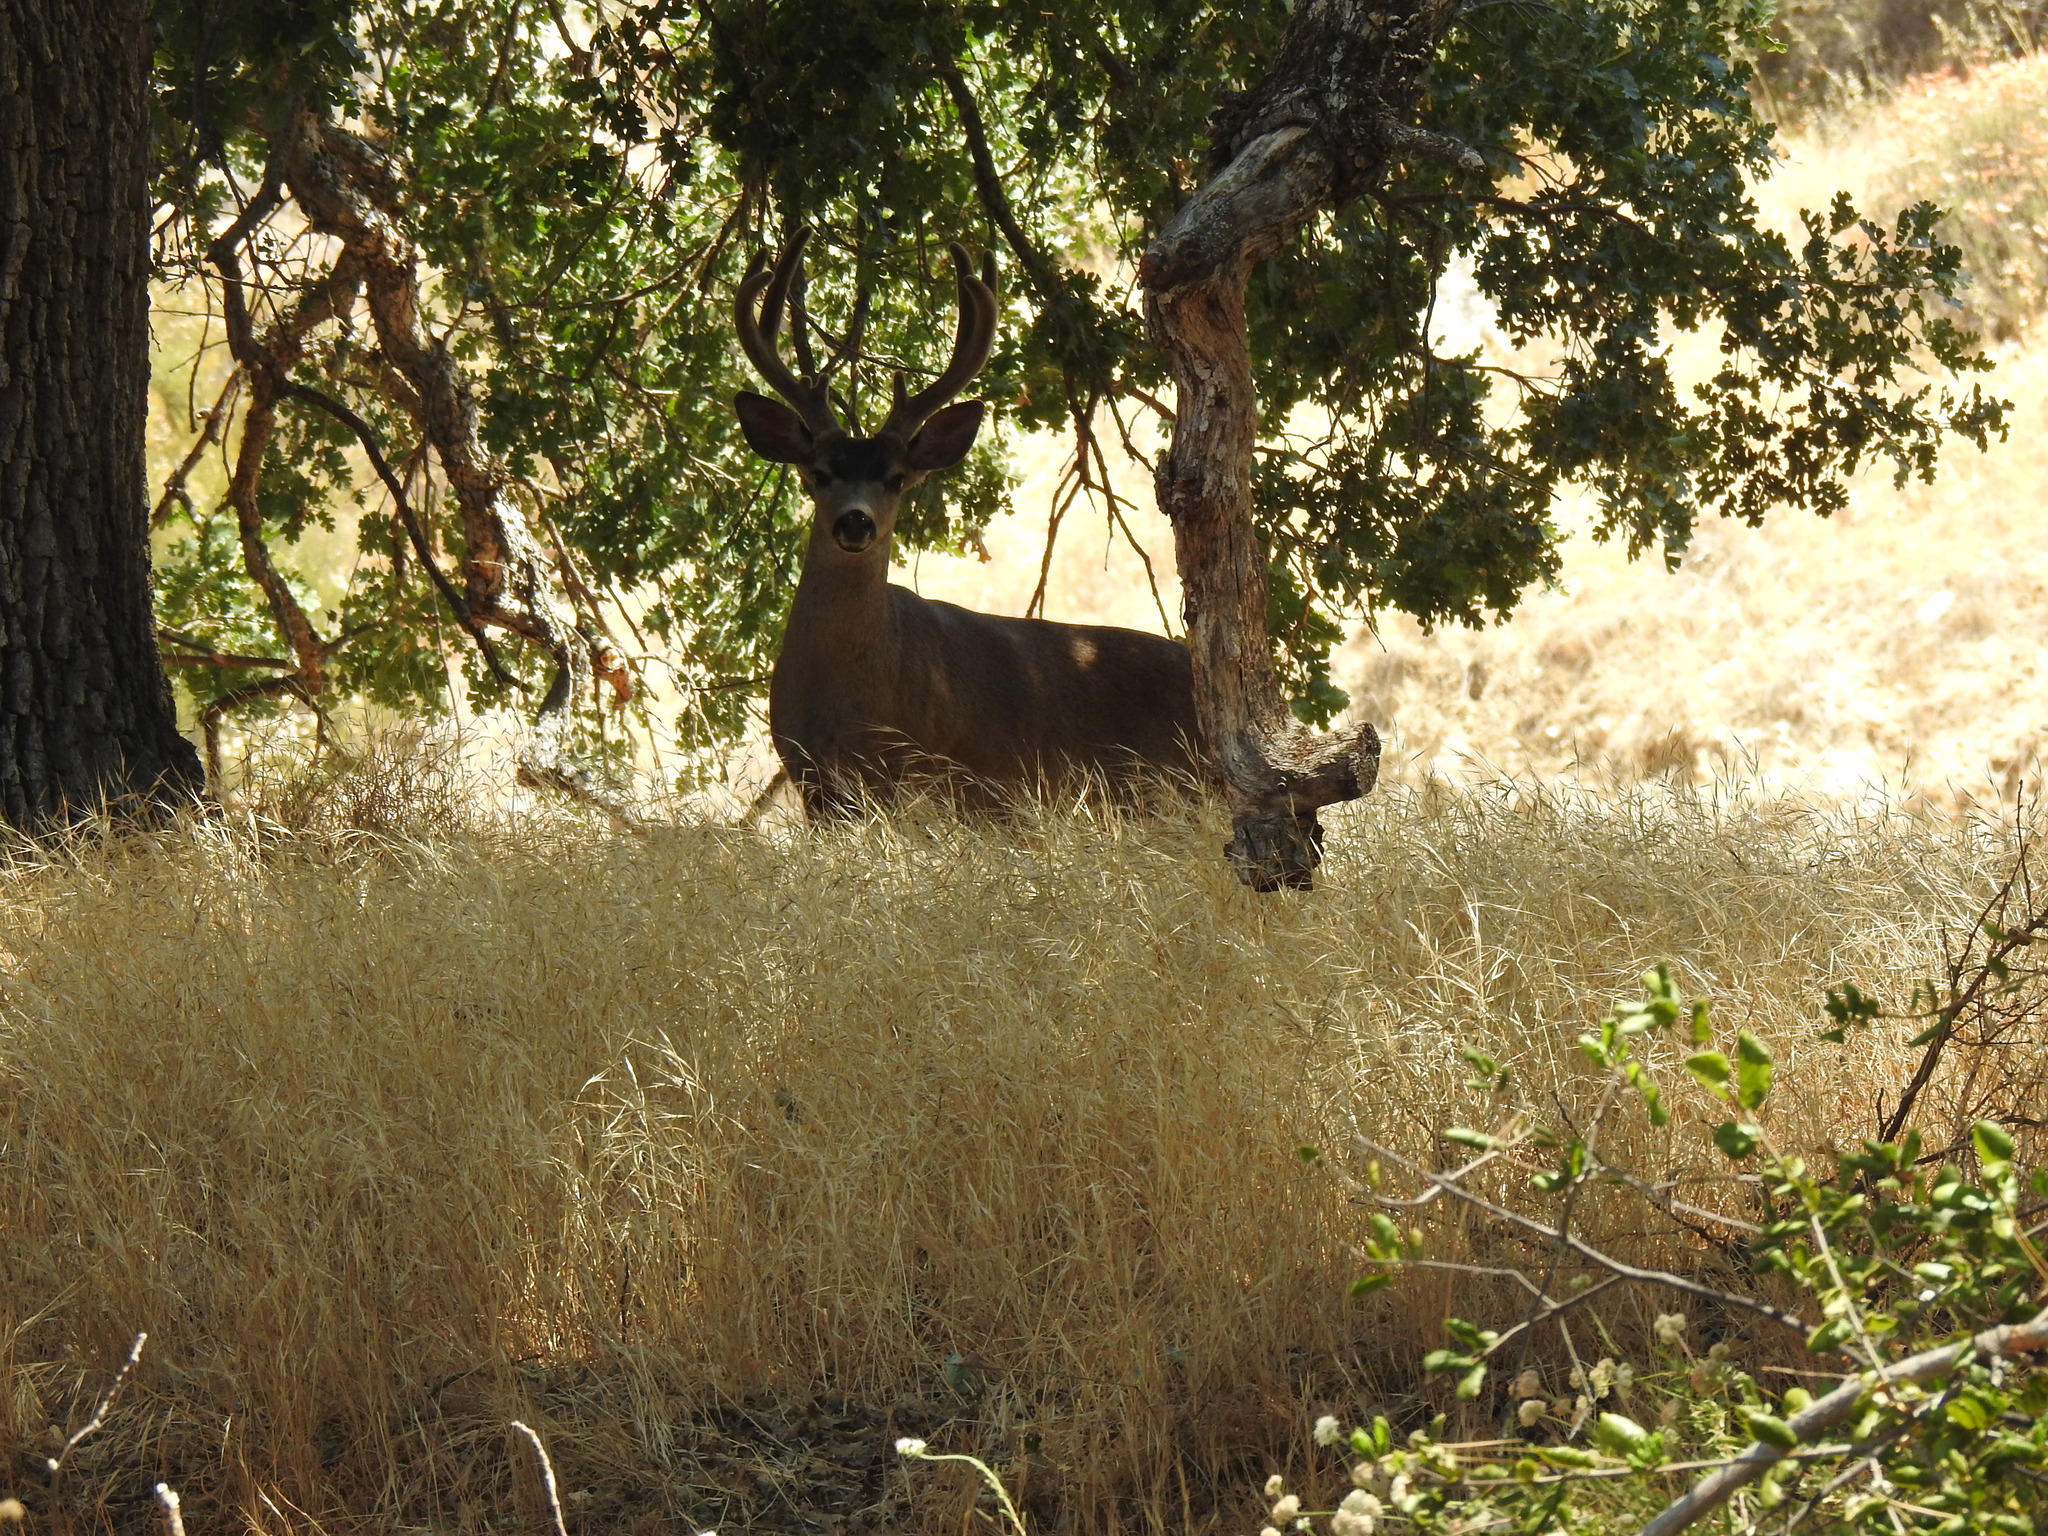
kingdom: Animalia
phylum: Chordata
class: Mammalia
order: Artiodactyla
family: Cervidae
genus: Odocoileus
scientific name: Odocoileus hemionus
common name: Mule deer
